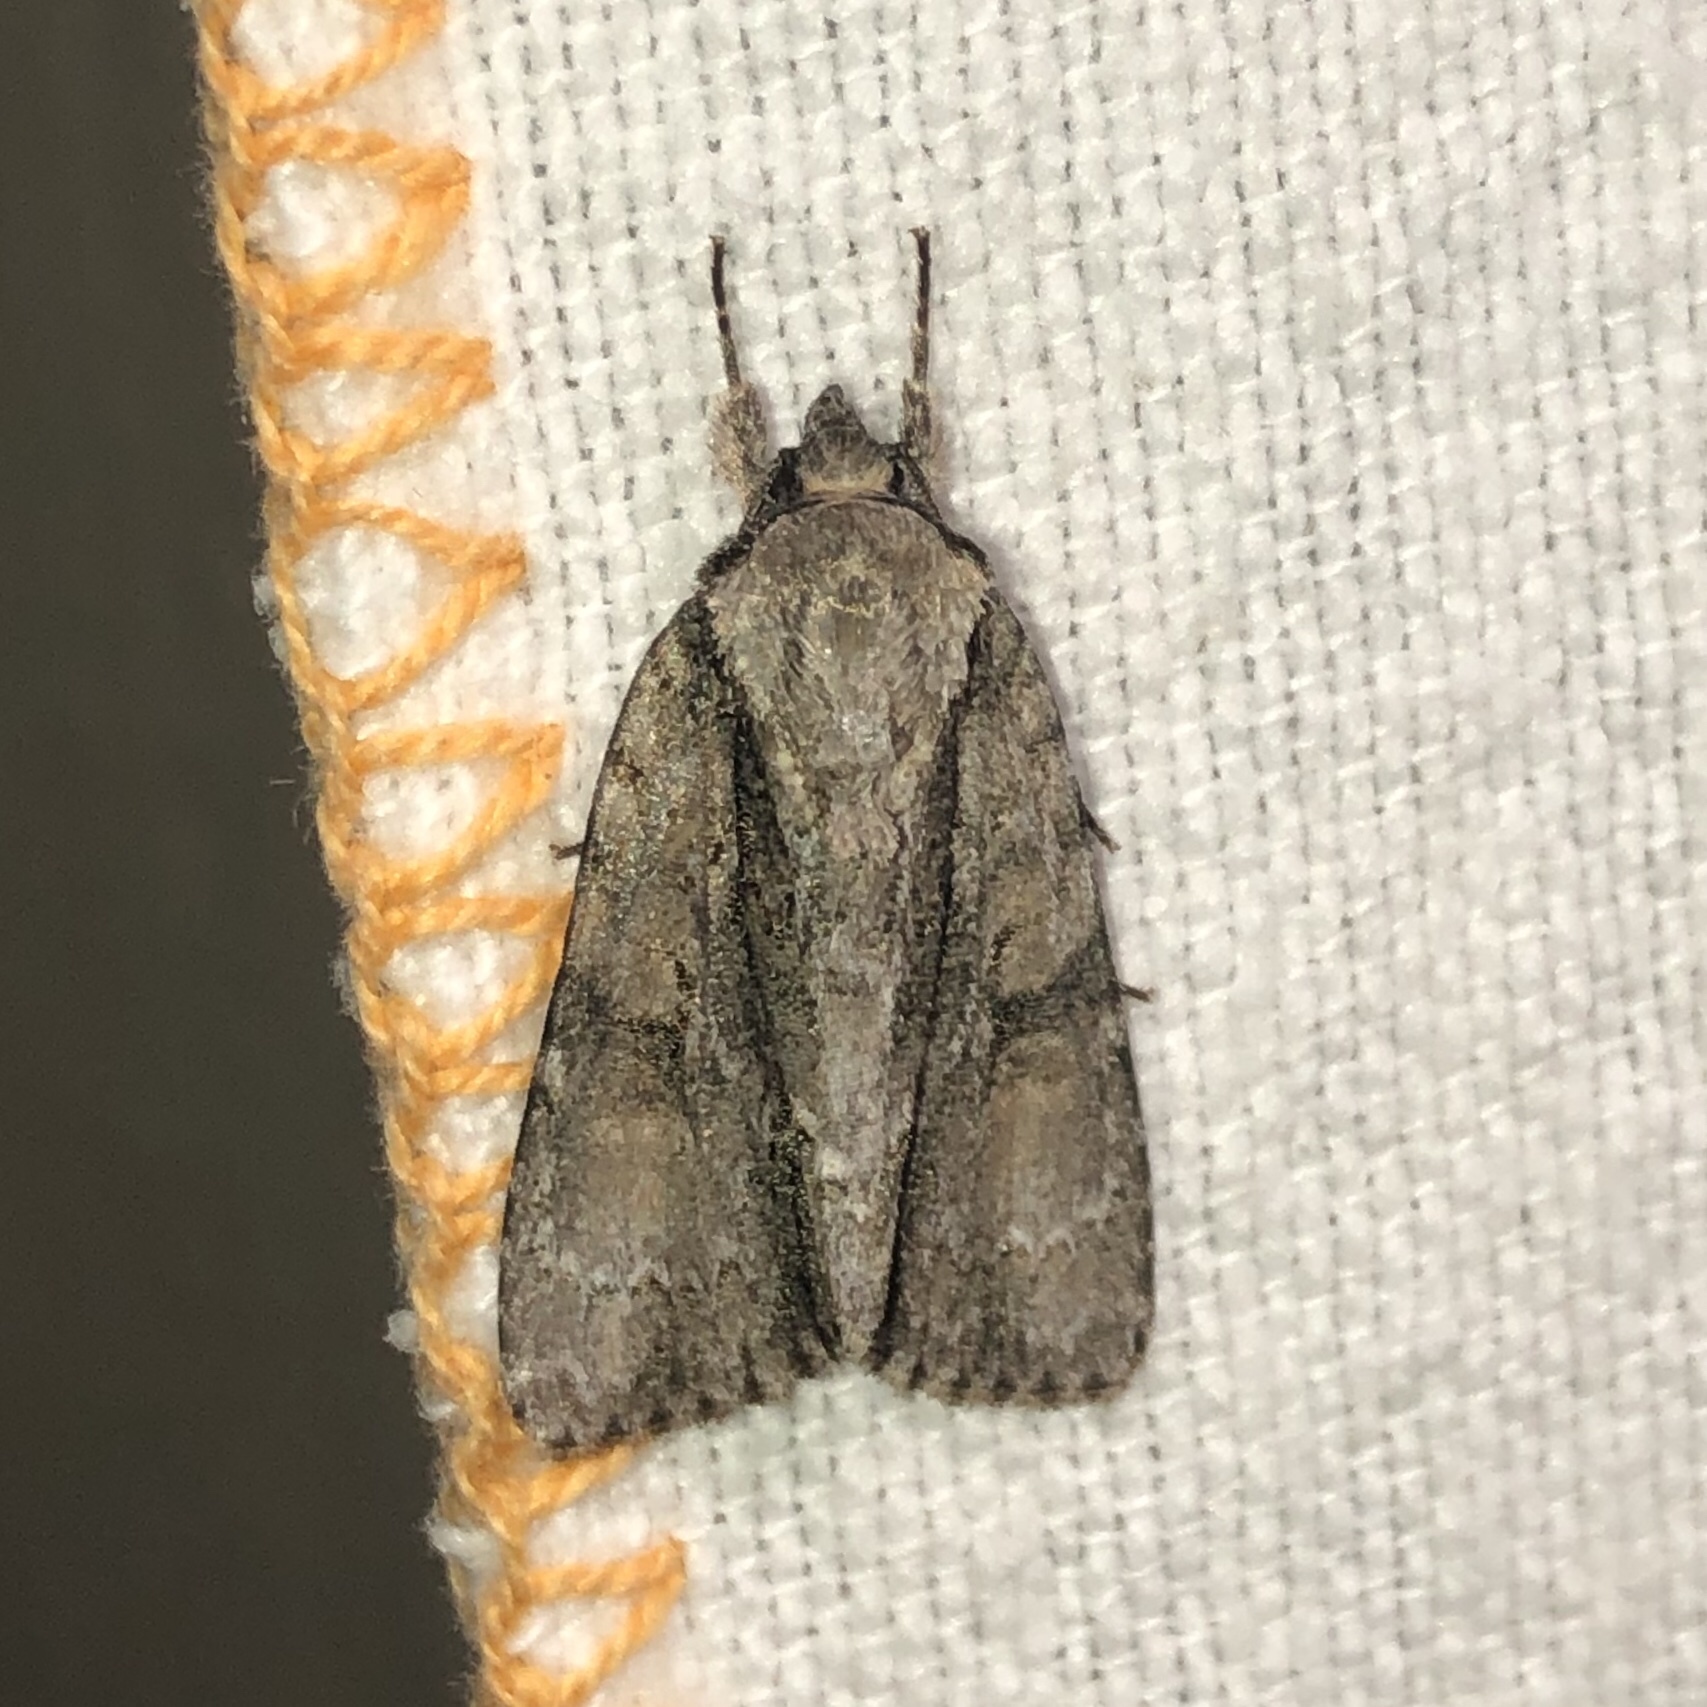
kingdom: Animalia
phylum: Arthropoda
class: Insecta
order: Lepidoptera
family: Noctuidae
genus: Acronicta
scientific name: Acronicta connecta
